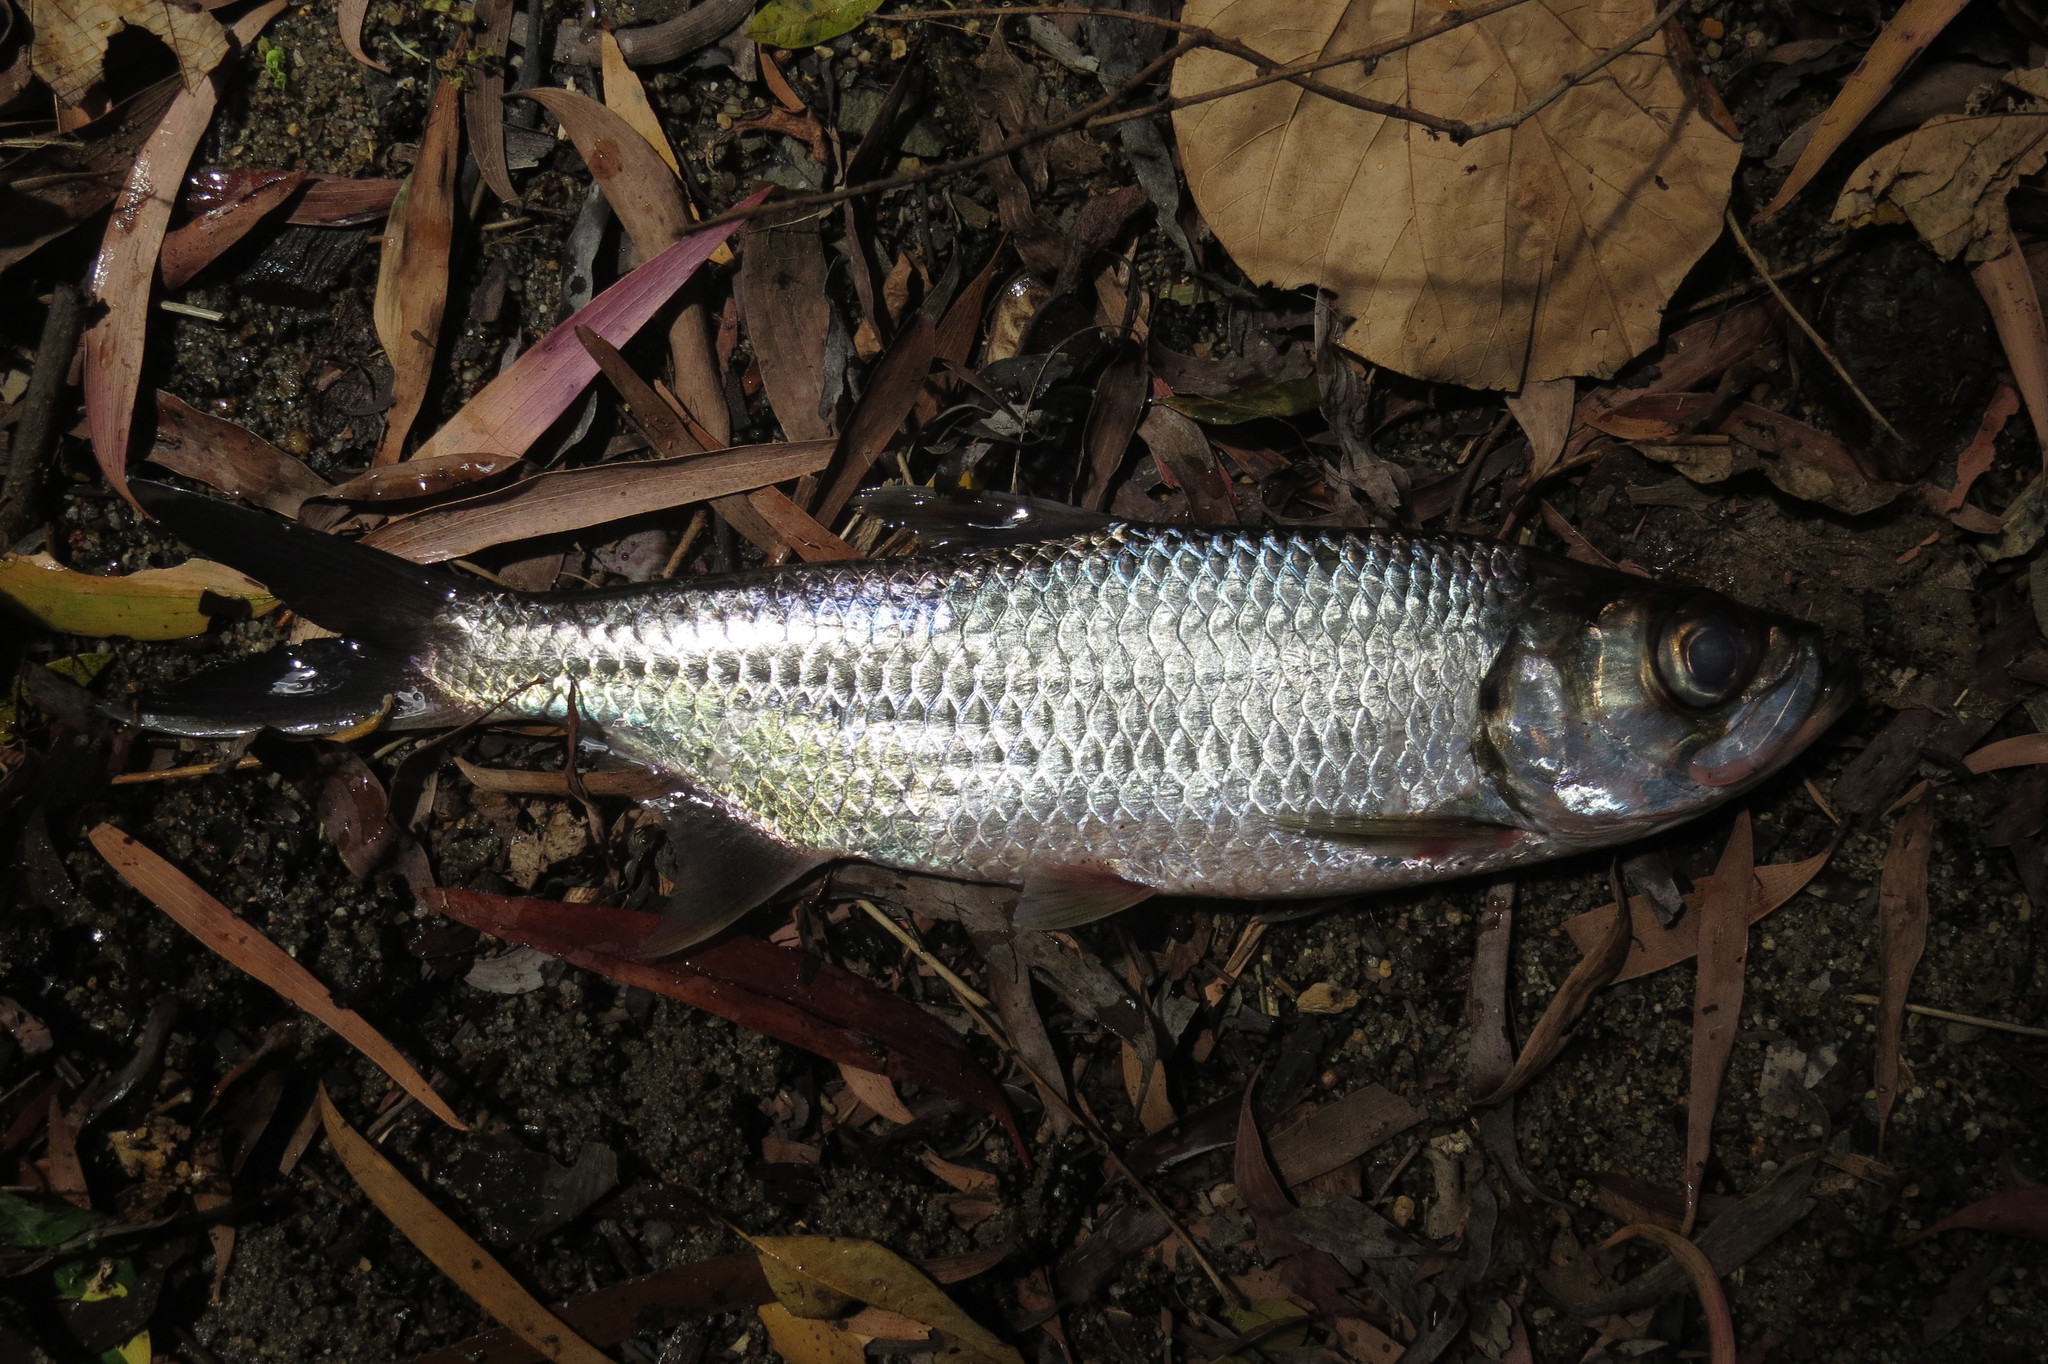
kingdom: Animalia
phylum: Chordata
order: Elopiformes
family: Megalopidae
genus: Megalops
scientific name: Megalops cyprinoides
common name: Indo-pacific tarpon
